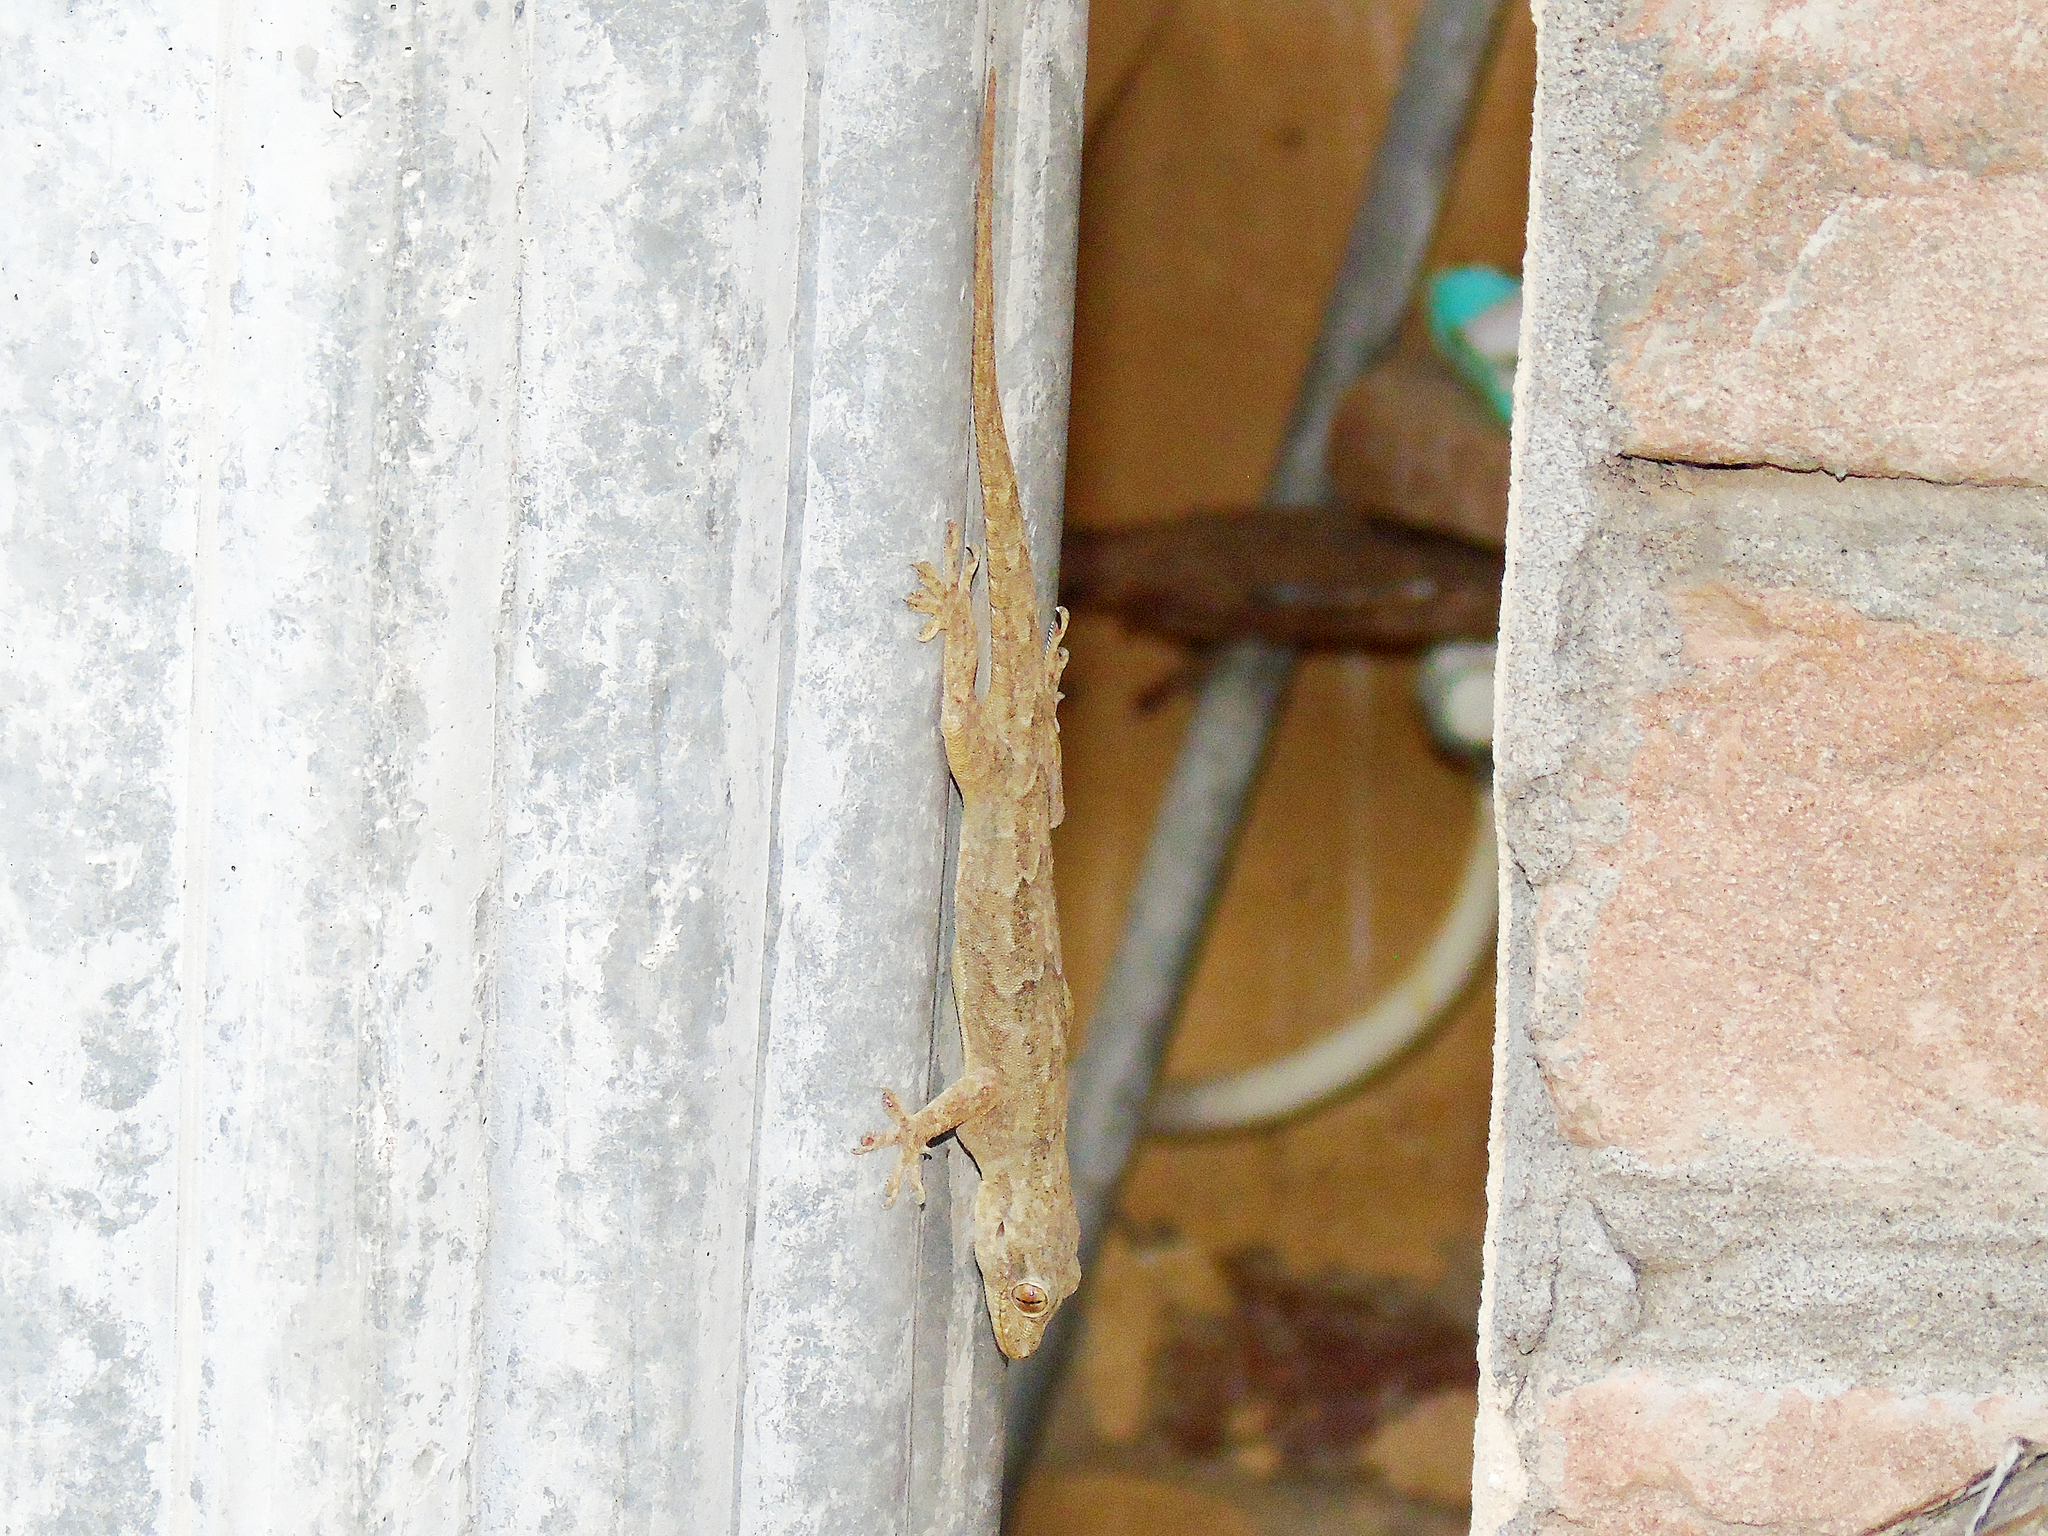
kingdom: Animalia
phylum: Chordata
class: Squamata
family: Gekkonidae
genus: Hemidactylus
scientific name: Hemidactylus flaviviridis
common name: Northern house gecko
